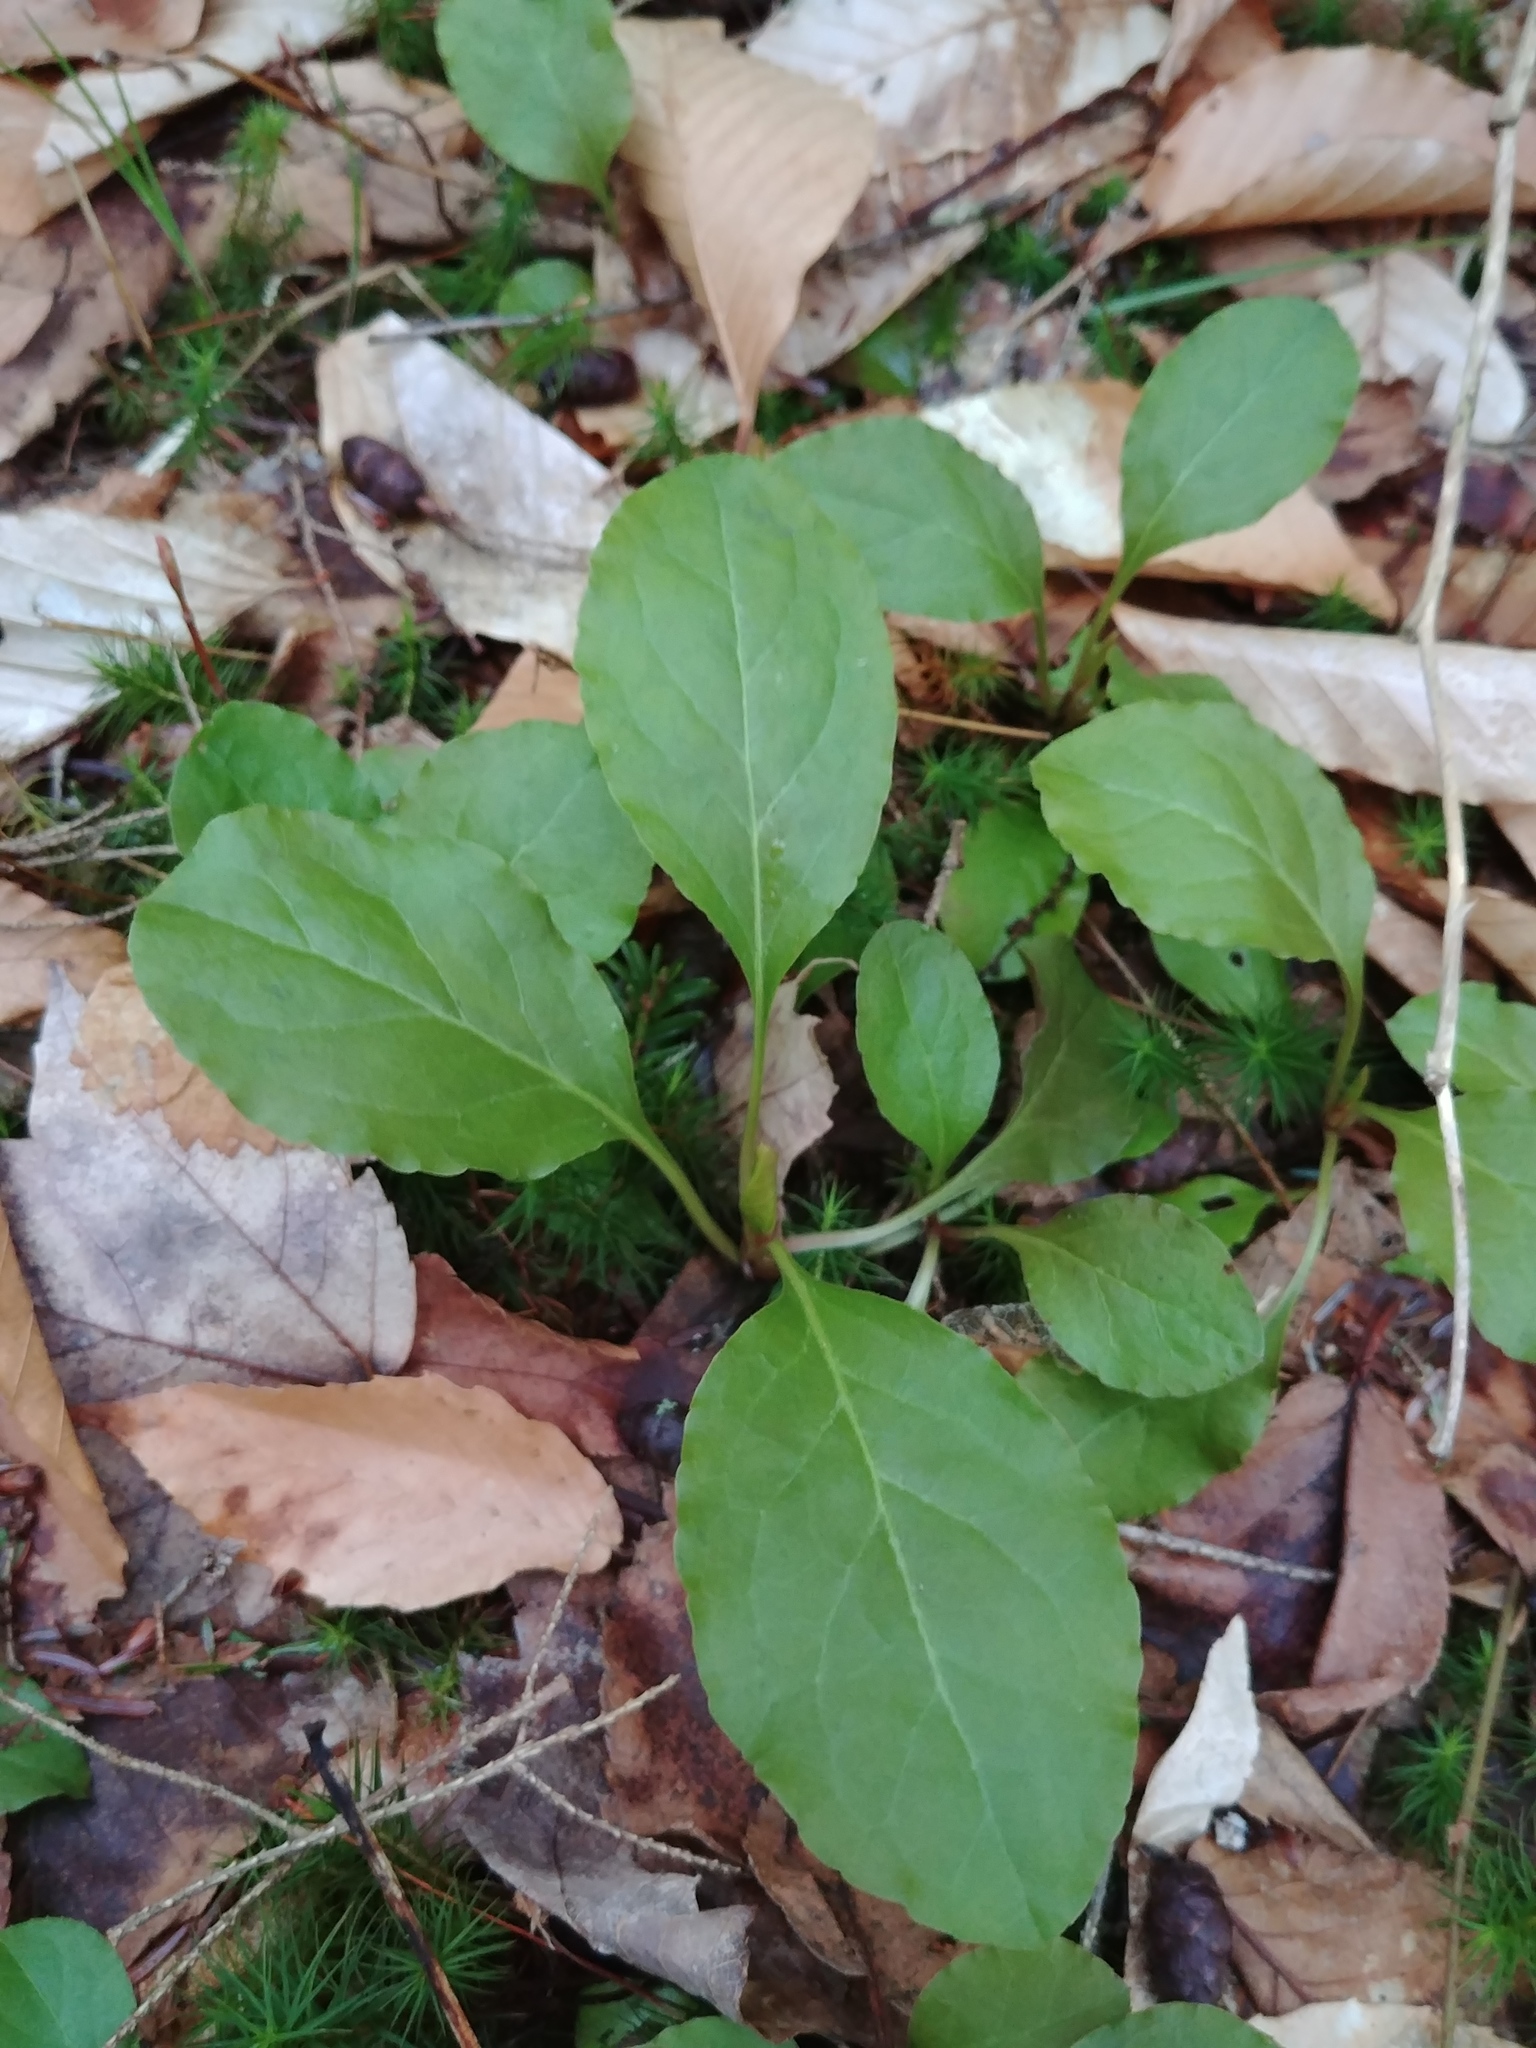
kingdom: Plantae
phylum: Tracheophyta
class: Magnoliopsida
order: Ericales
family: Ericaceae
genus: Pyrola
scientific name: Pyrola elliptica
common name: Shinleaf
